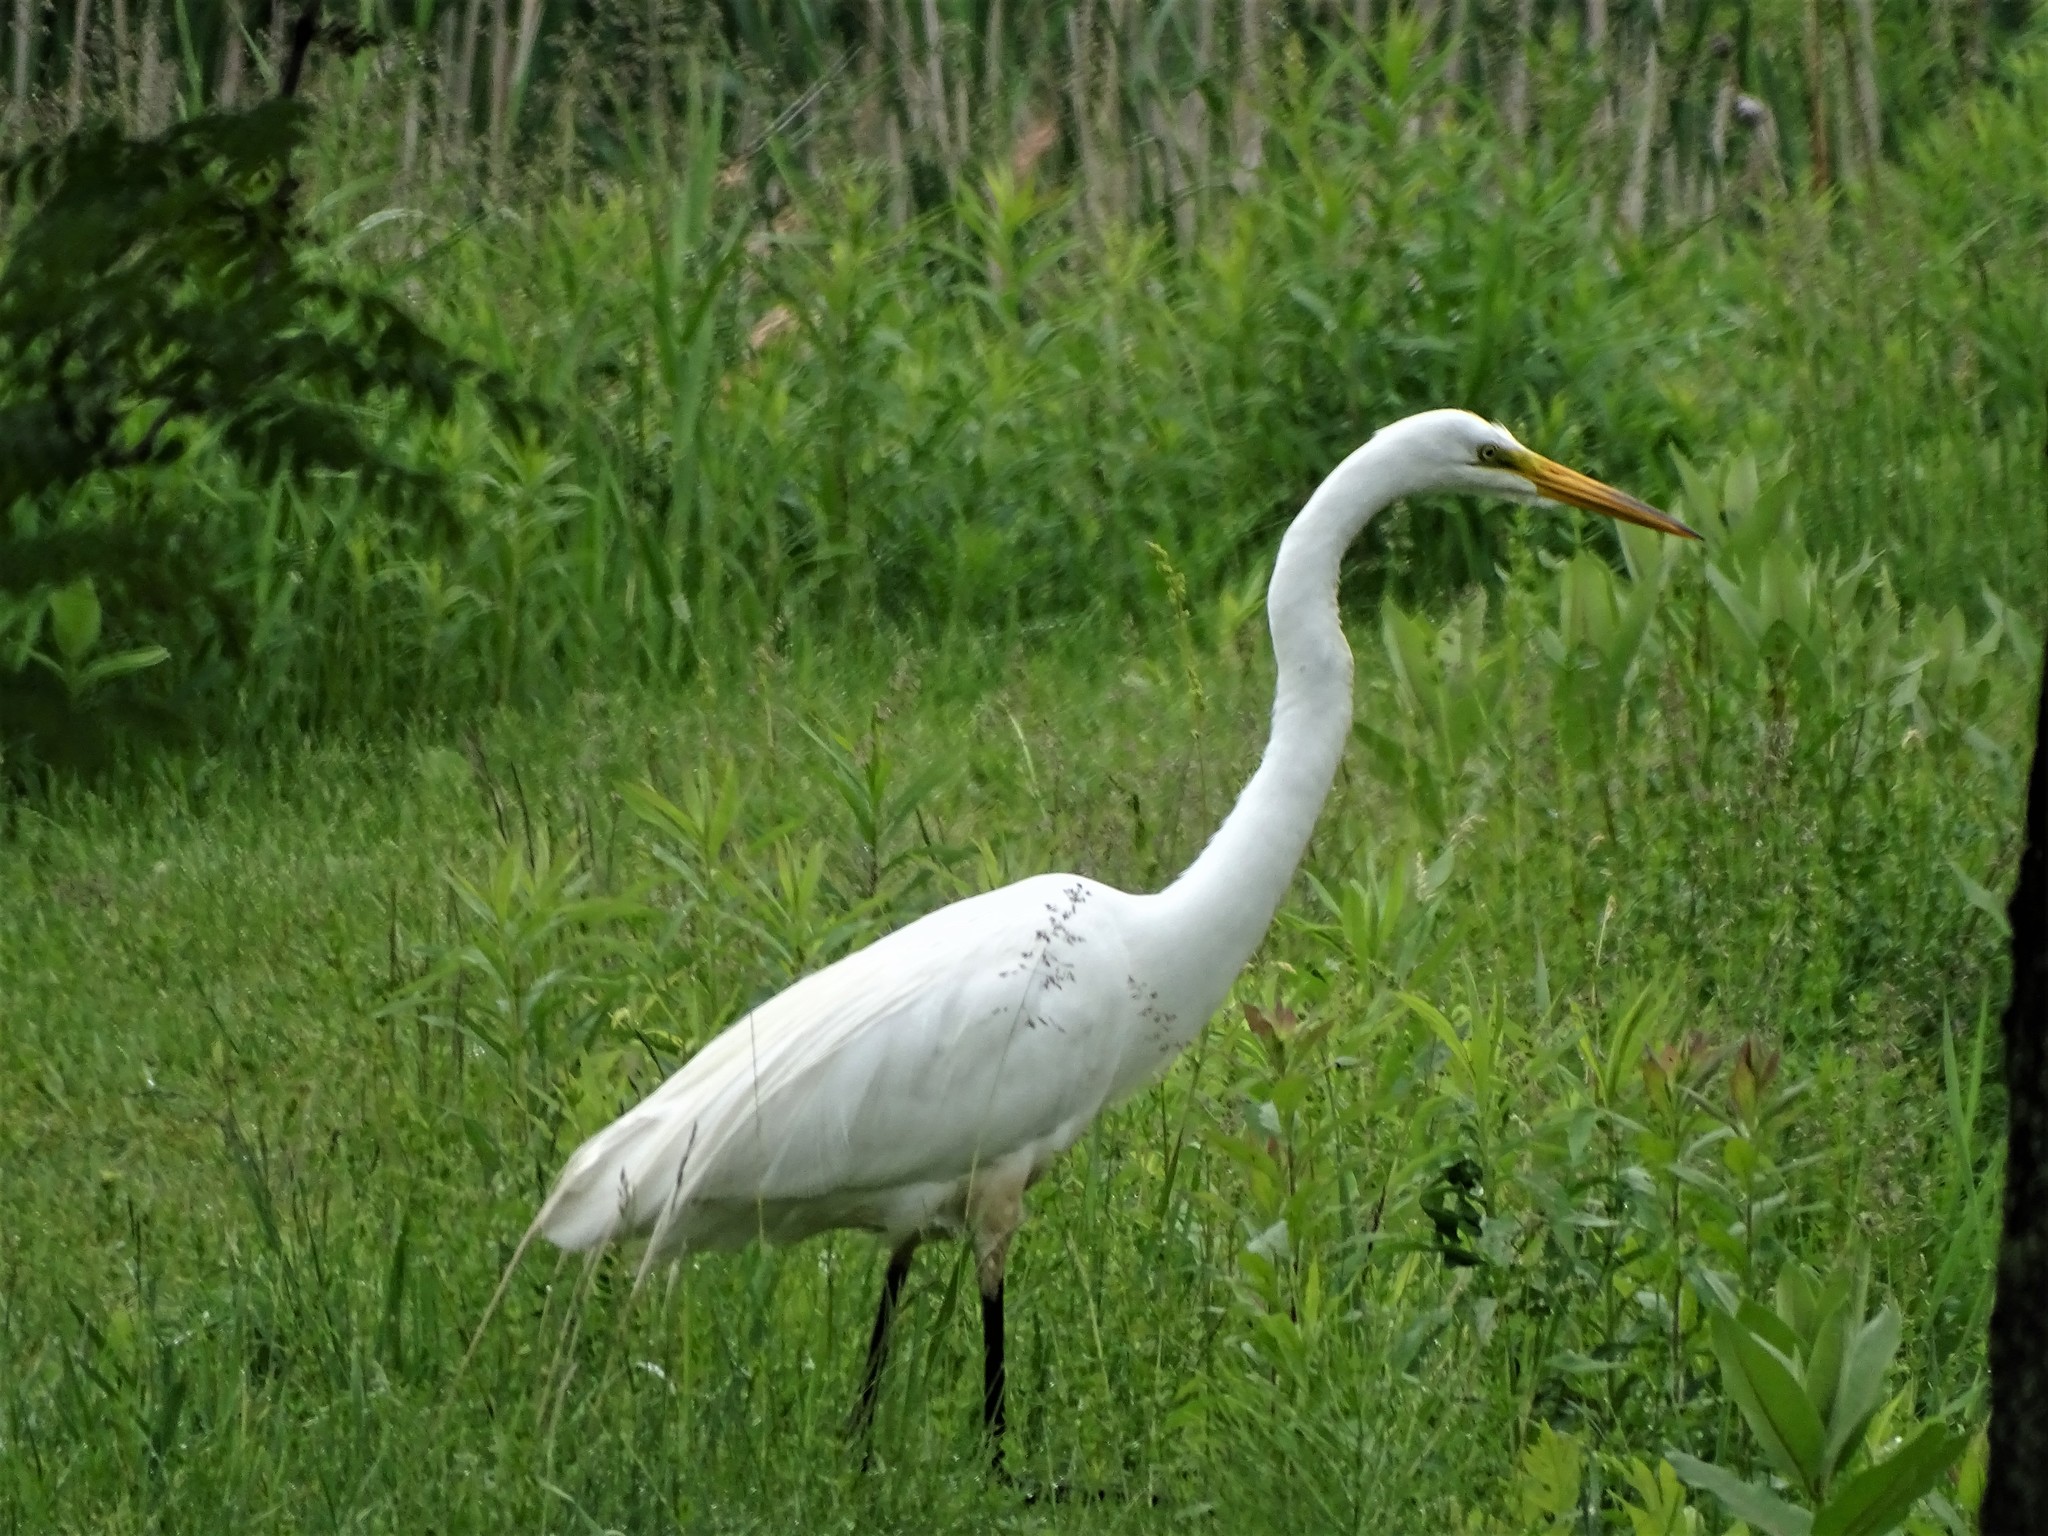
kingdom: Animalia
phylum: Chordata
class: Aves
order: Pelecaniformes
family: Ardeidae
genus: Ardea
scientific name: Ardea alba
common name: Great egret
